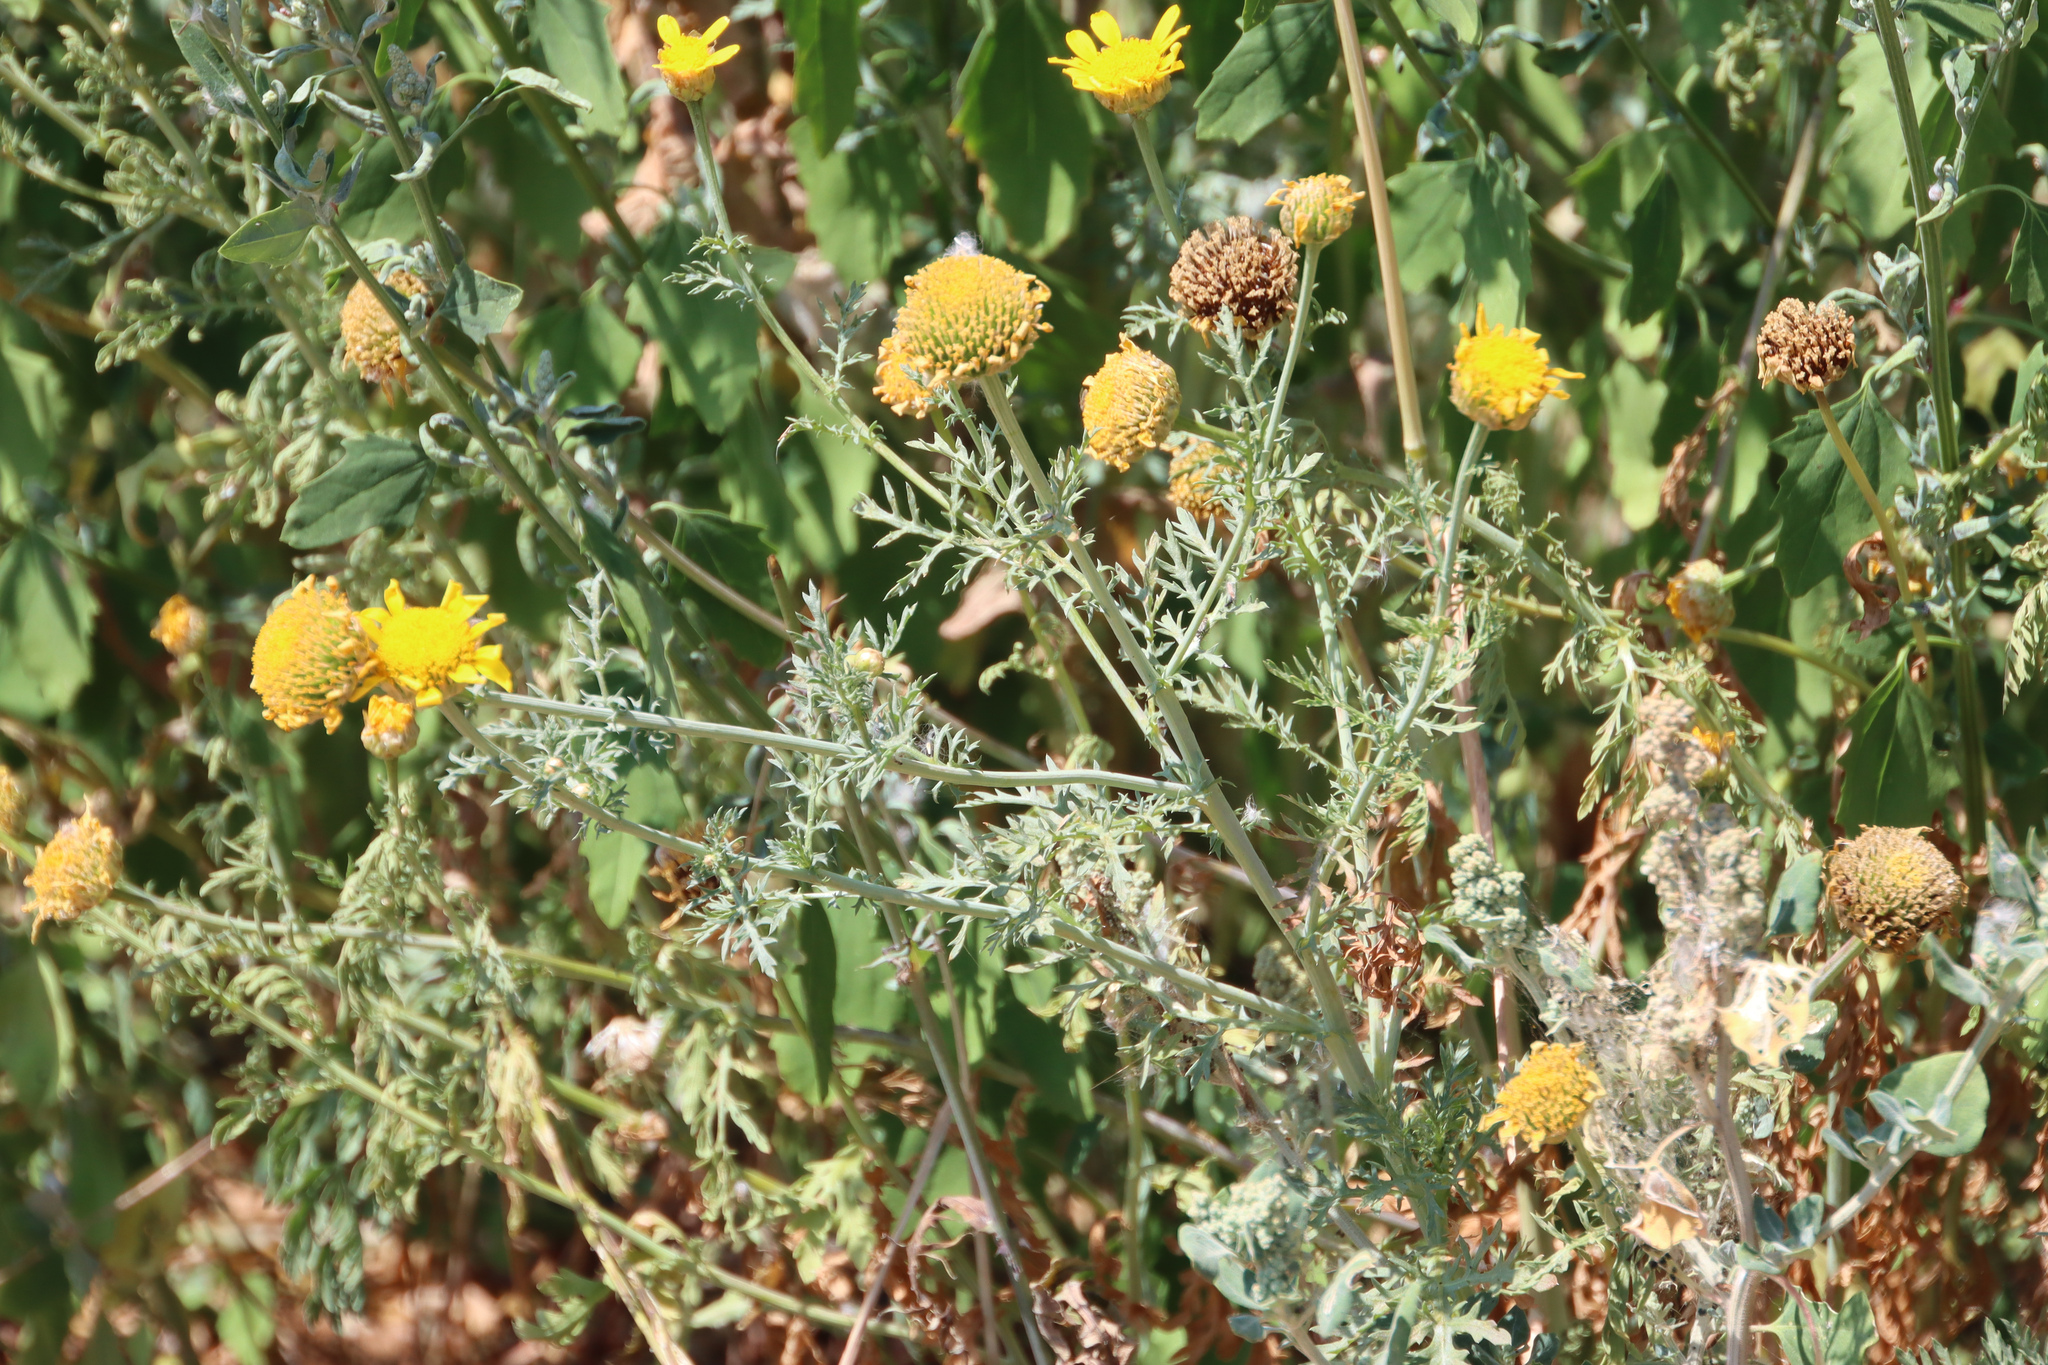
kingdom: Plantae
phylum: Tracheophyta
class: Magnoliopsida
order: Asterales
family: Asteraceae
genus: Glebionis
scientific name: Glebionis coronaria
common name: Crowndaisy
